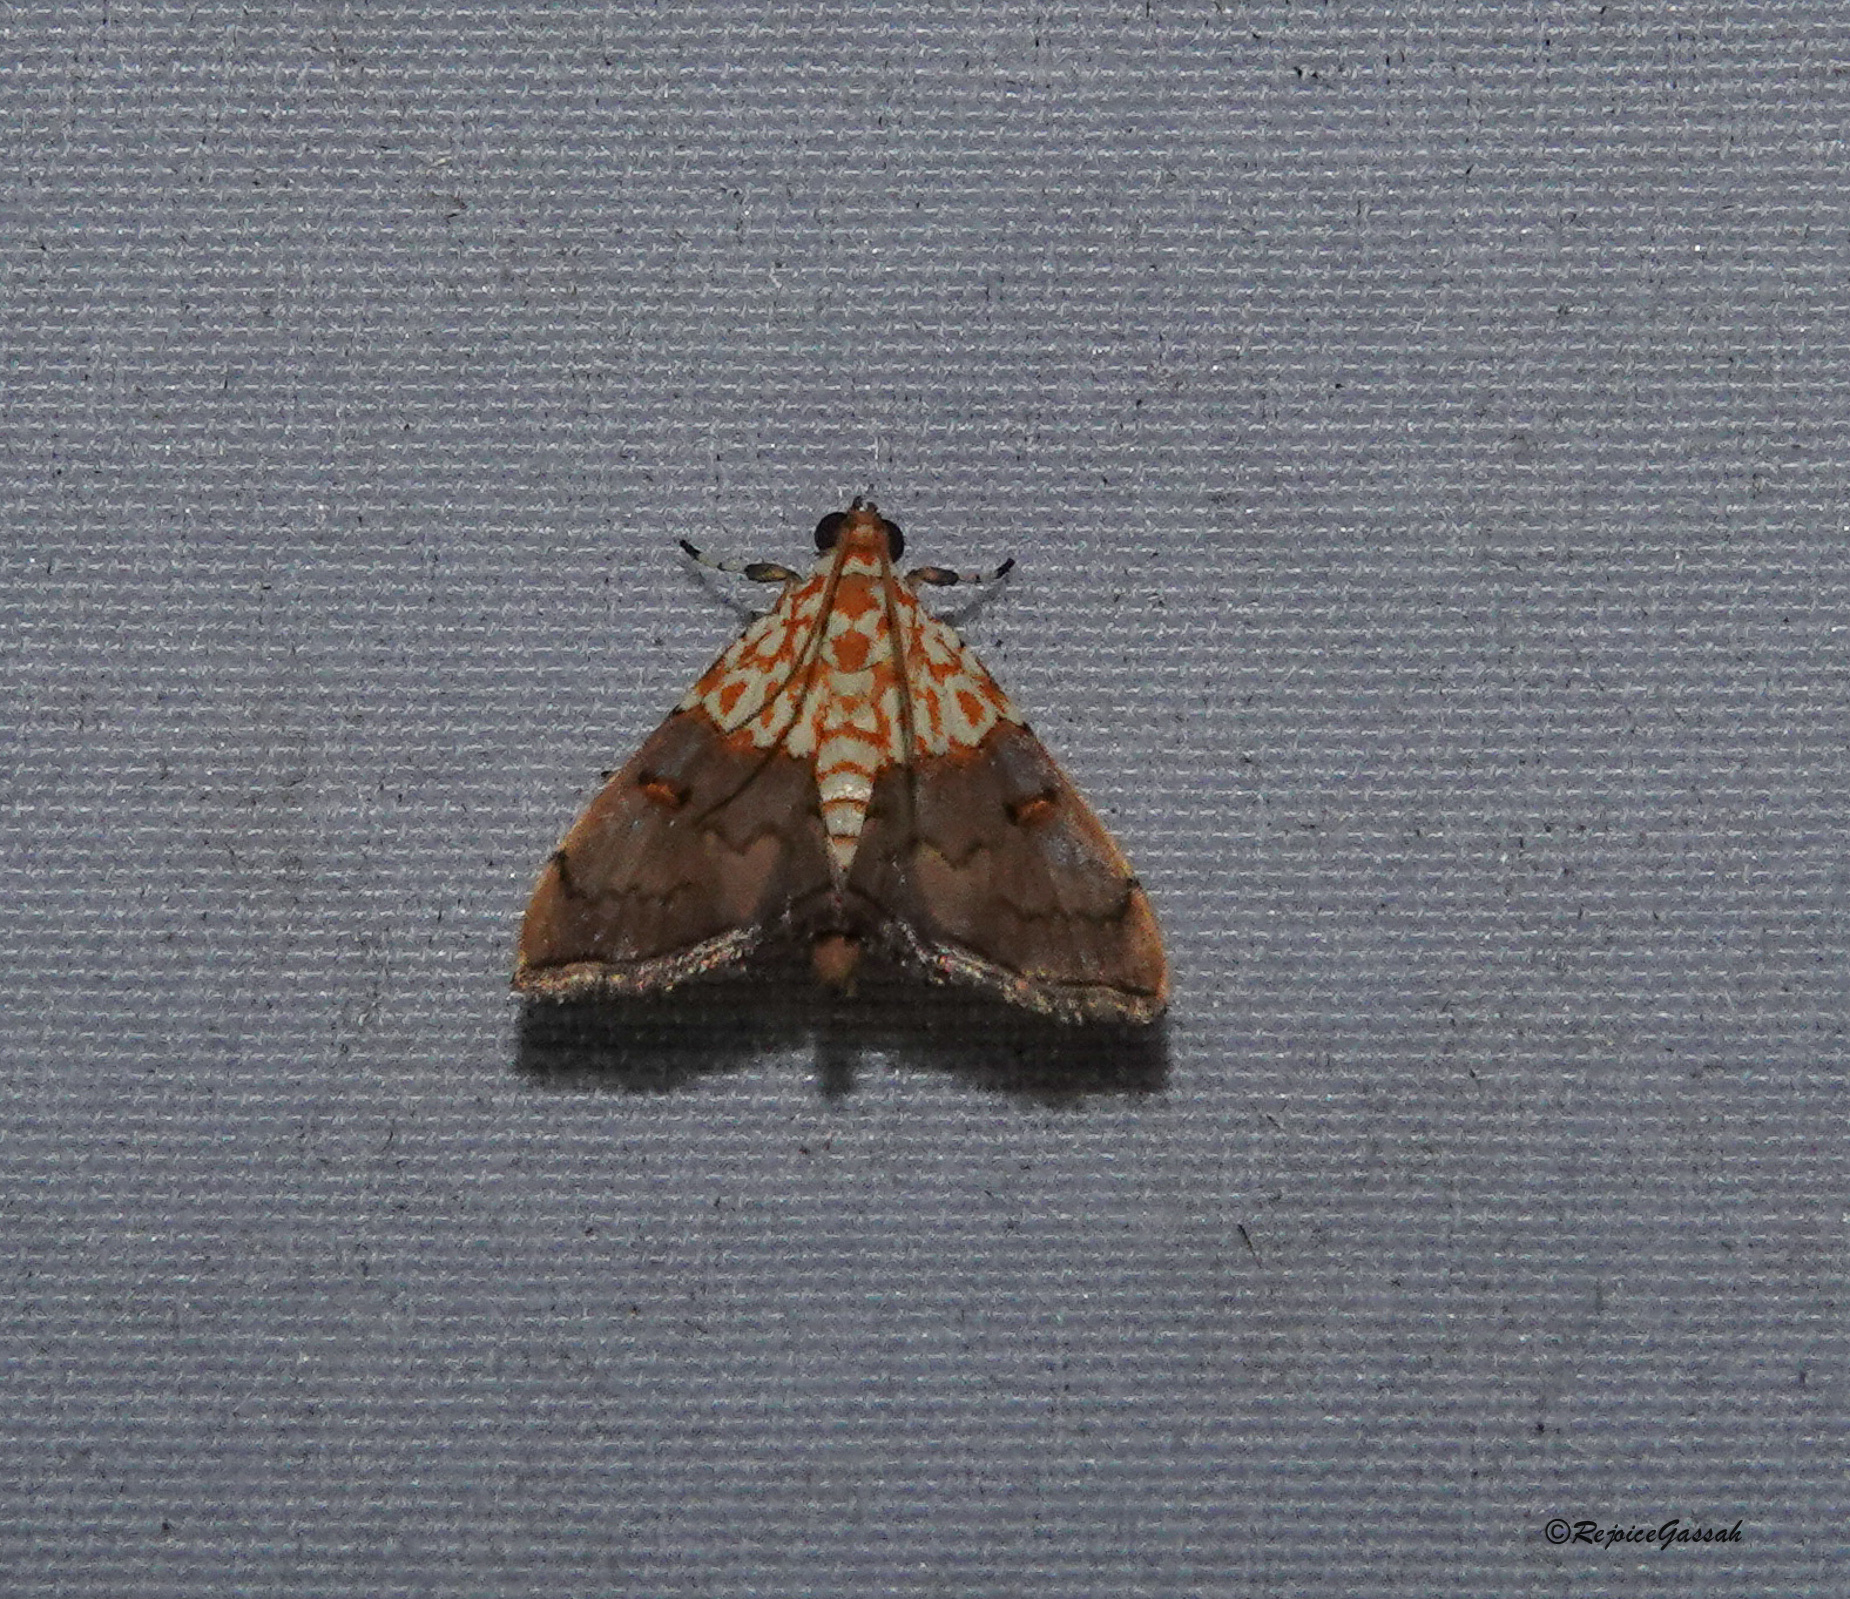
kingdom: Animalia
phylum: Arthropoda
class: Insecta
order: Lepidoptera
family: Crambidae
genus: Agrotera
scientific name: Agrotera basinotata
